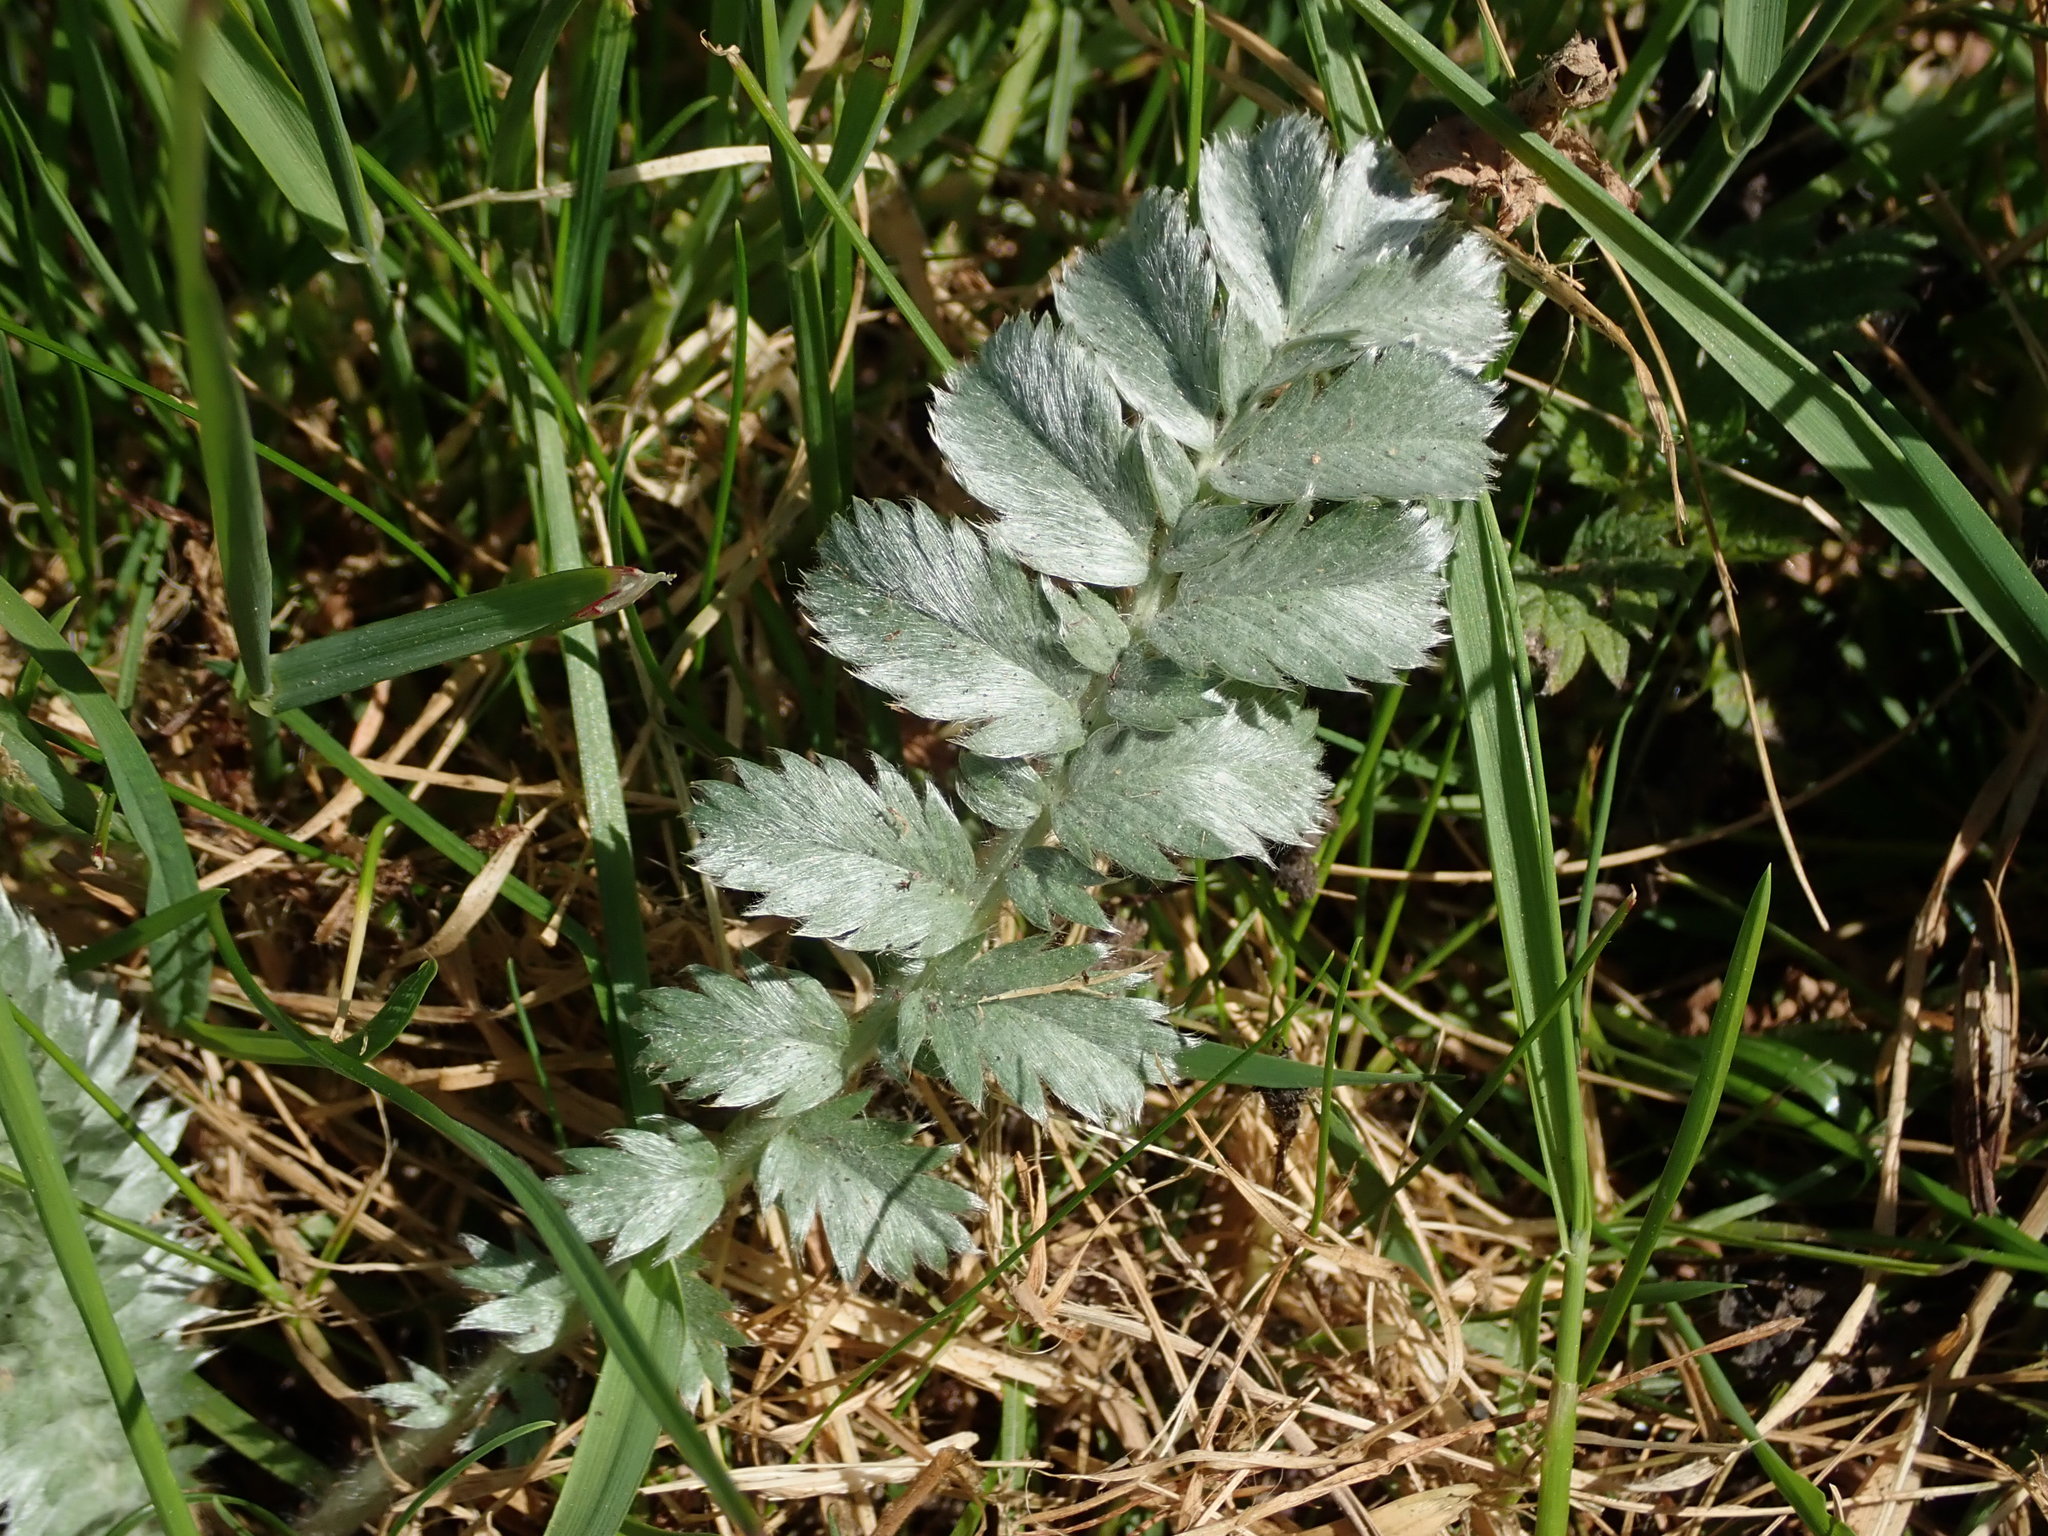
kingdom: Plantae
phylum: Tracheophyta
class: Magnoliopsida
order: Rosales
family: Rosaceae
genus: Argentina
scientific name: Argentina anserina
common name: Common silverweed
